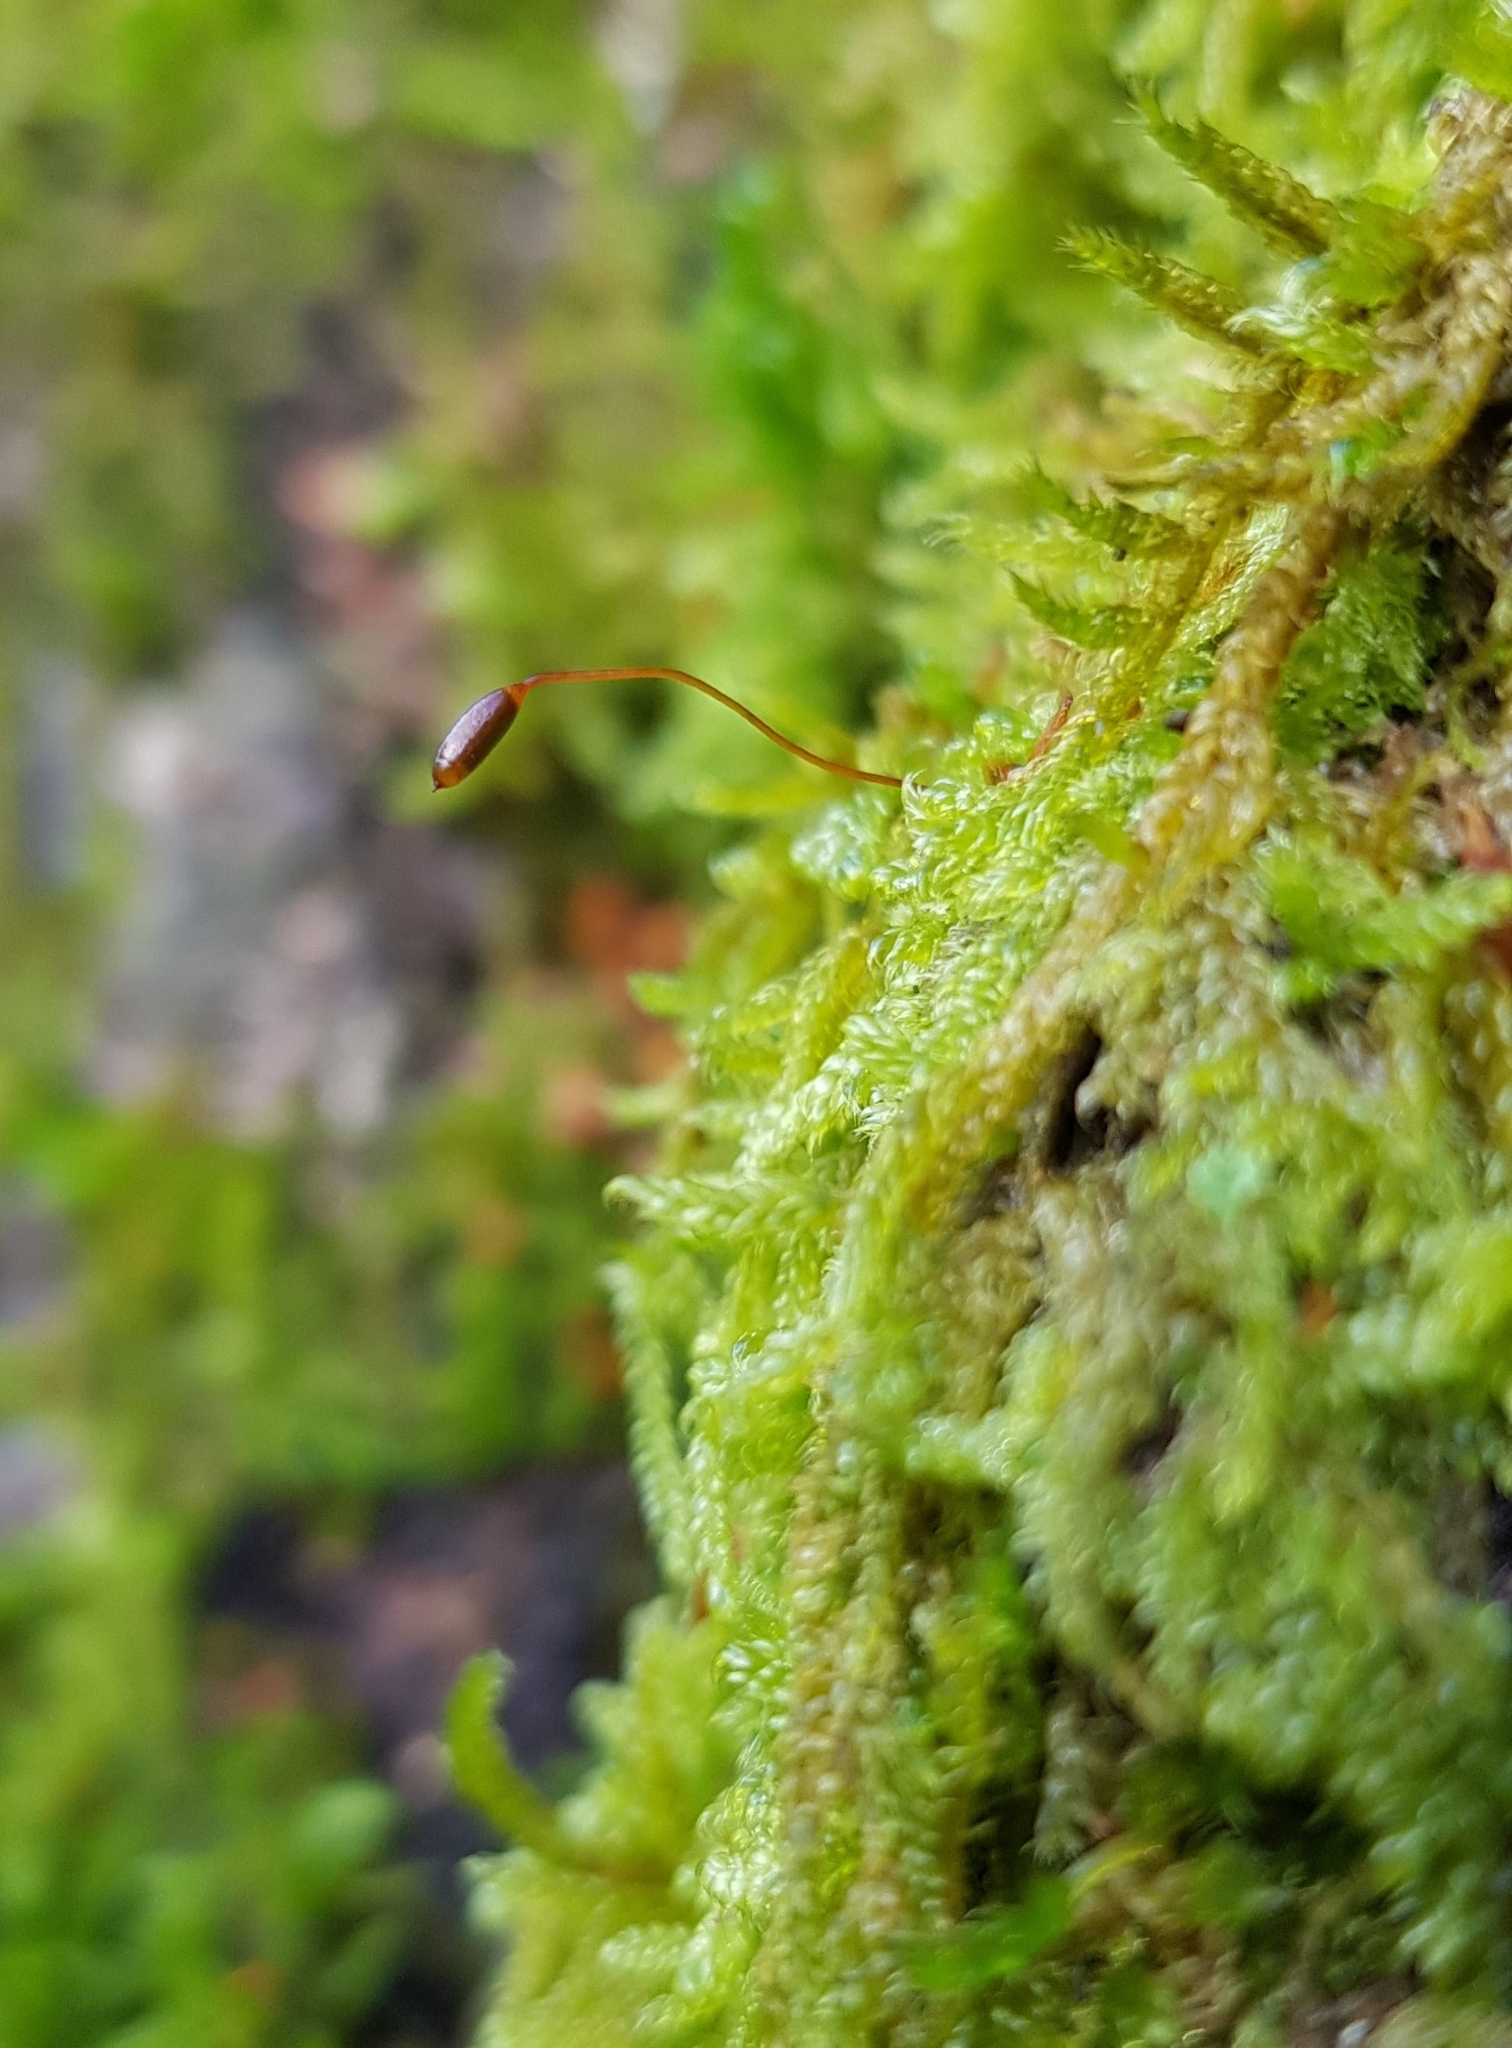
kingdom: Plantae
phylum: Bryophyta
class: Bryopsida
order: Hypnales
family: Hypnaceae
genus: Hypnum
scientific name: Hypnum andoi
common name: Ando's plait moss
